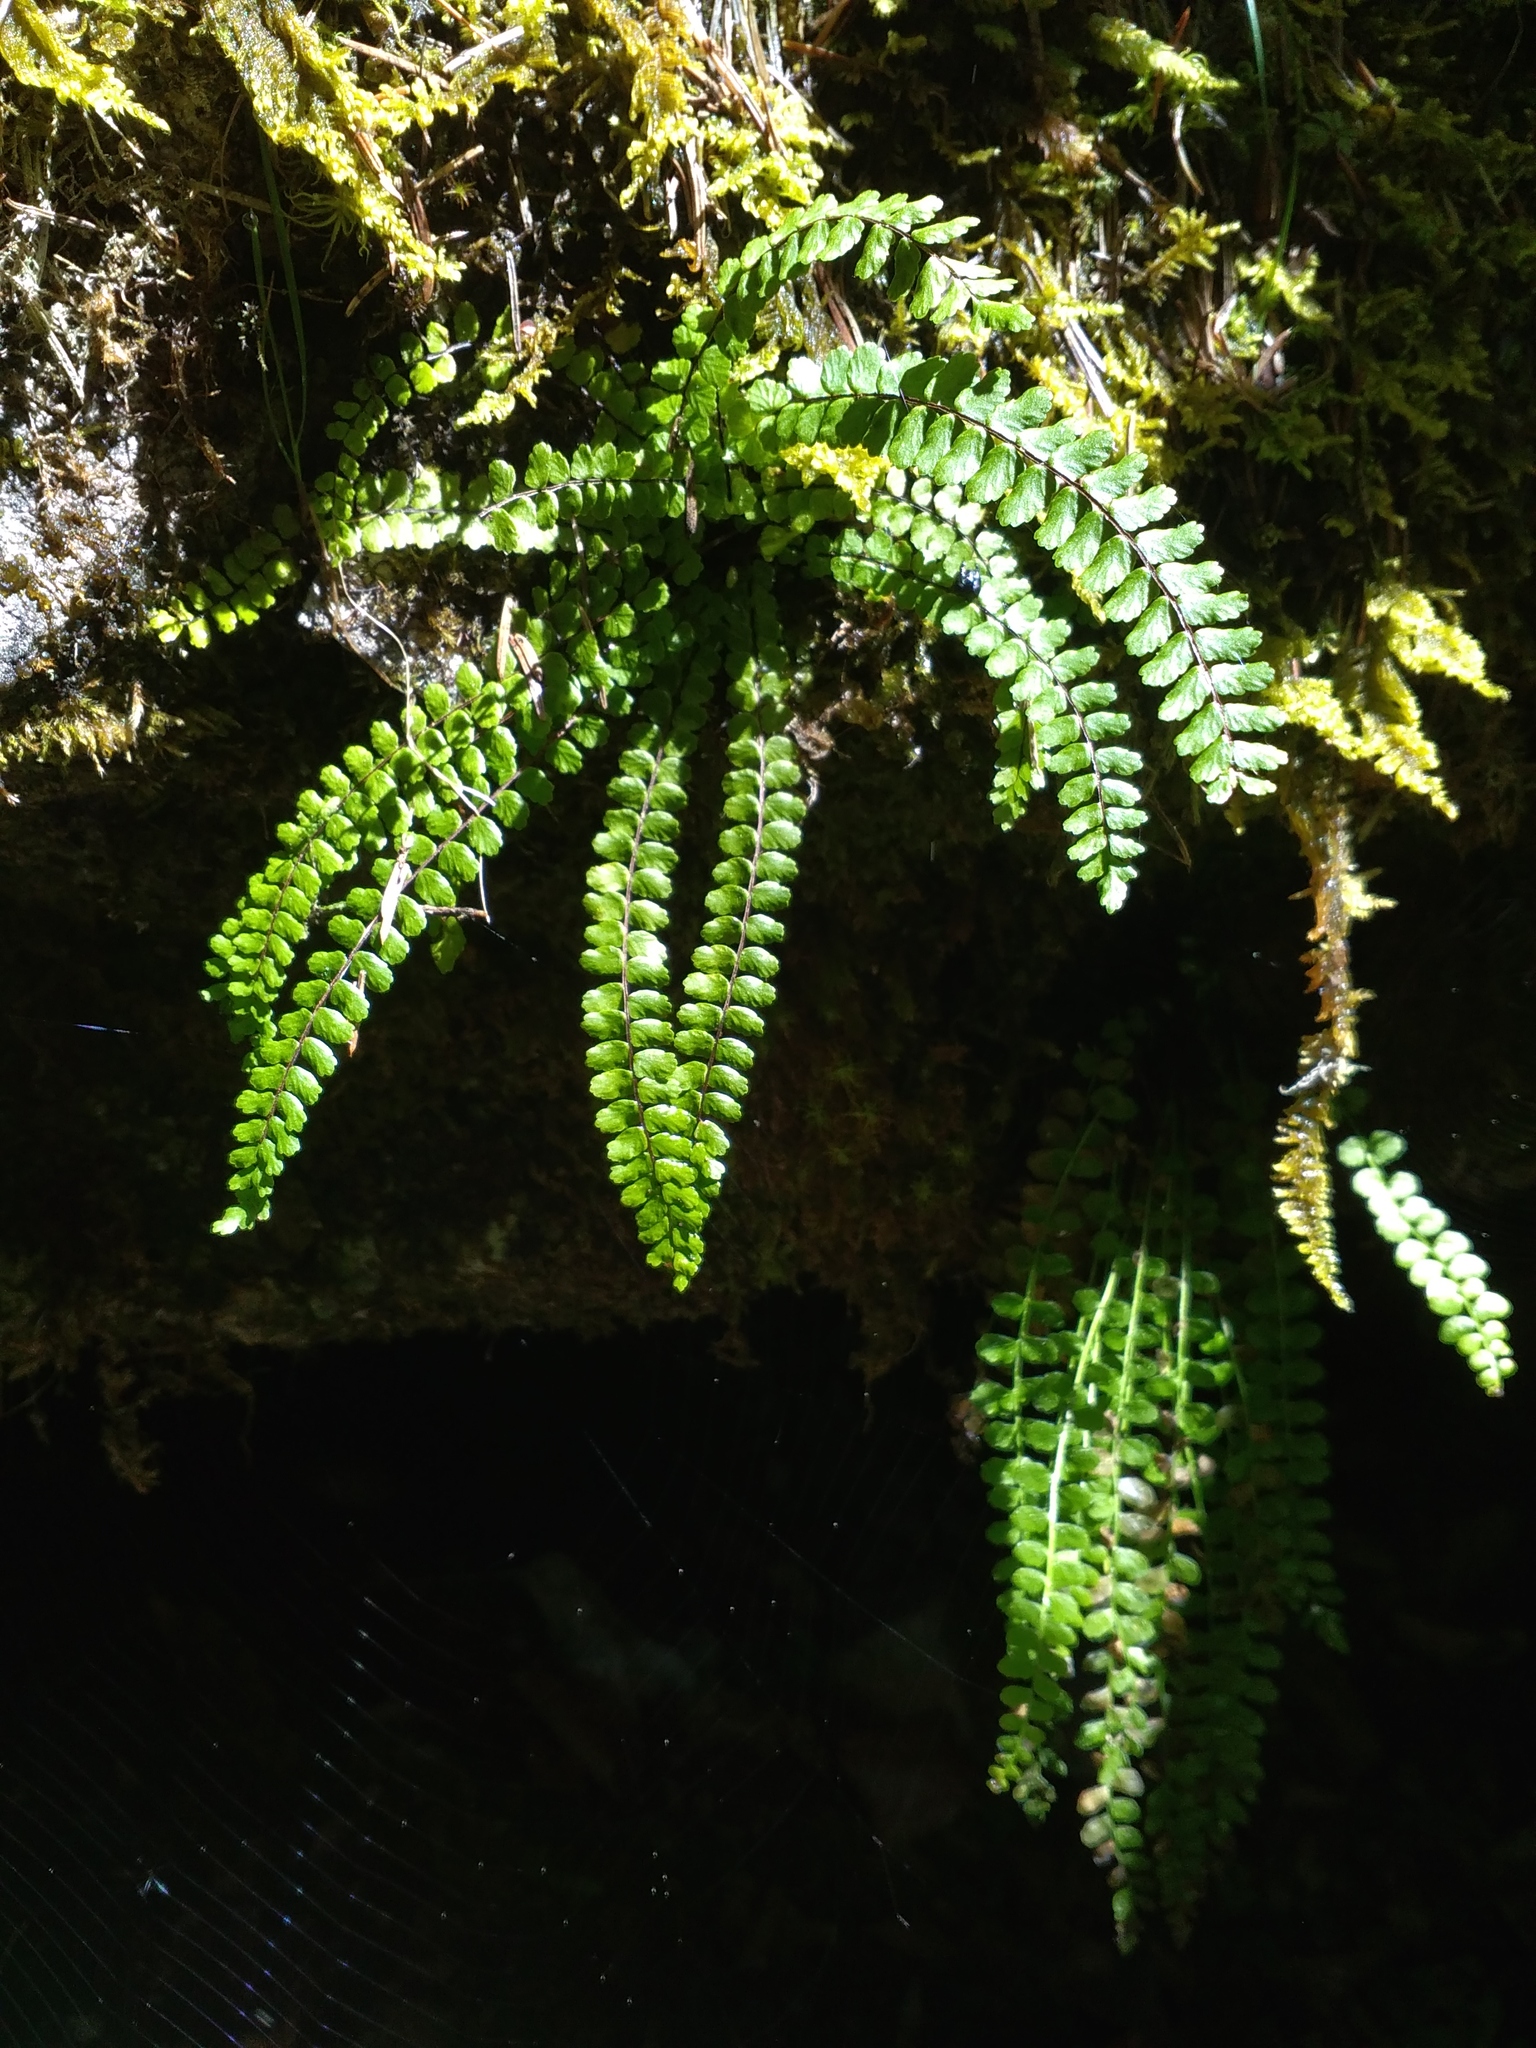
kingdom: Plantae
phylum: Tracheophyta
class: Polypodiopsida
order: Polypodiales
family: Aspleniaceae
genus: Asplenium
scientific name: Asplenium trichomanes
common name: Maidenhair spleenwort
